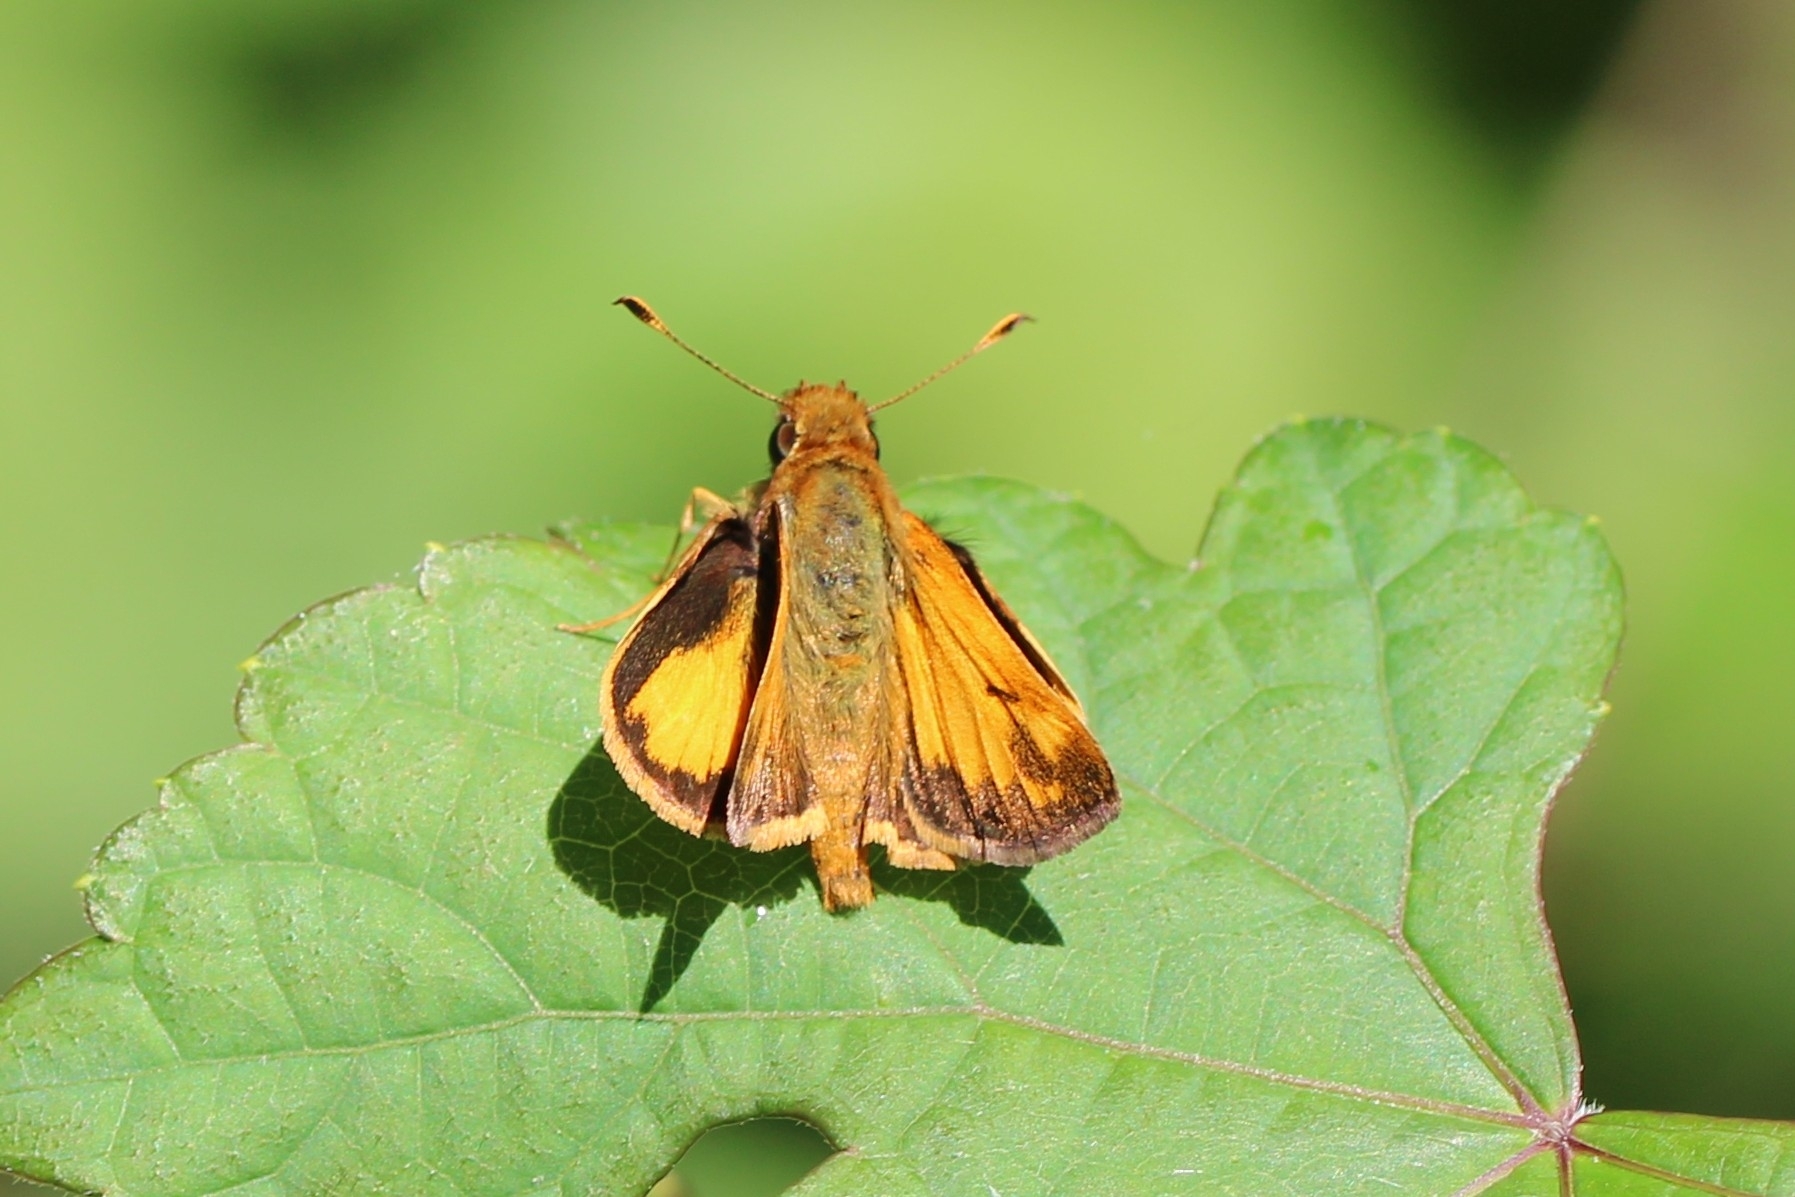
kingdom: Animalia
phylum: Arthropoda
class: Insecta
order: Lepidoptera
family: Hesperiidae
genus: Lon
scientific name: Lon zabulon
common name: Zabulon skipper
